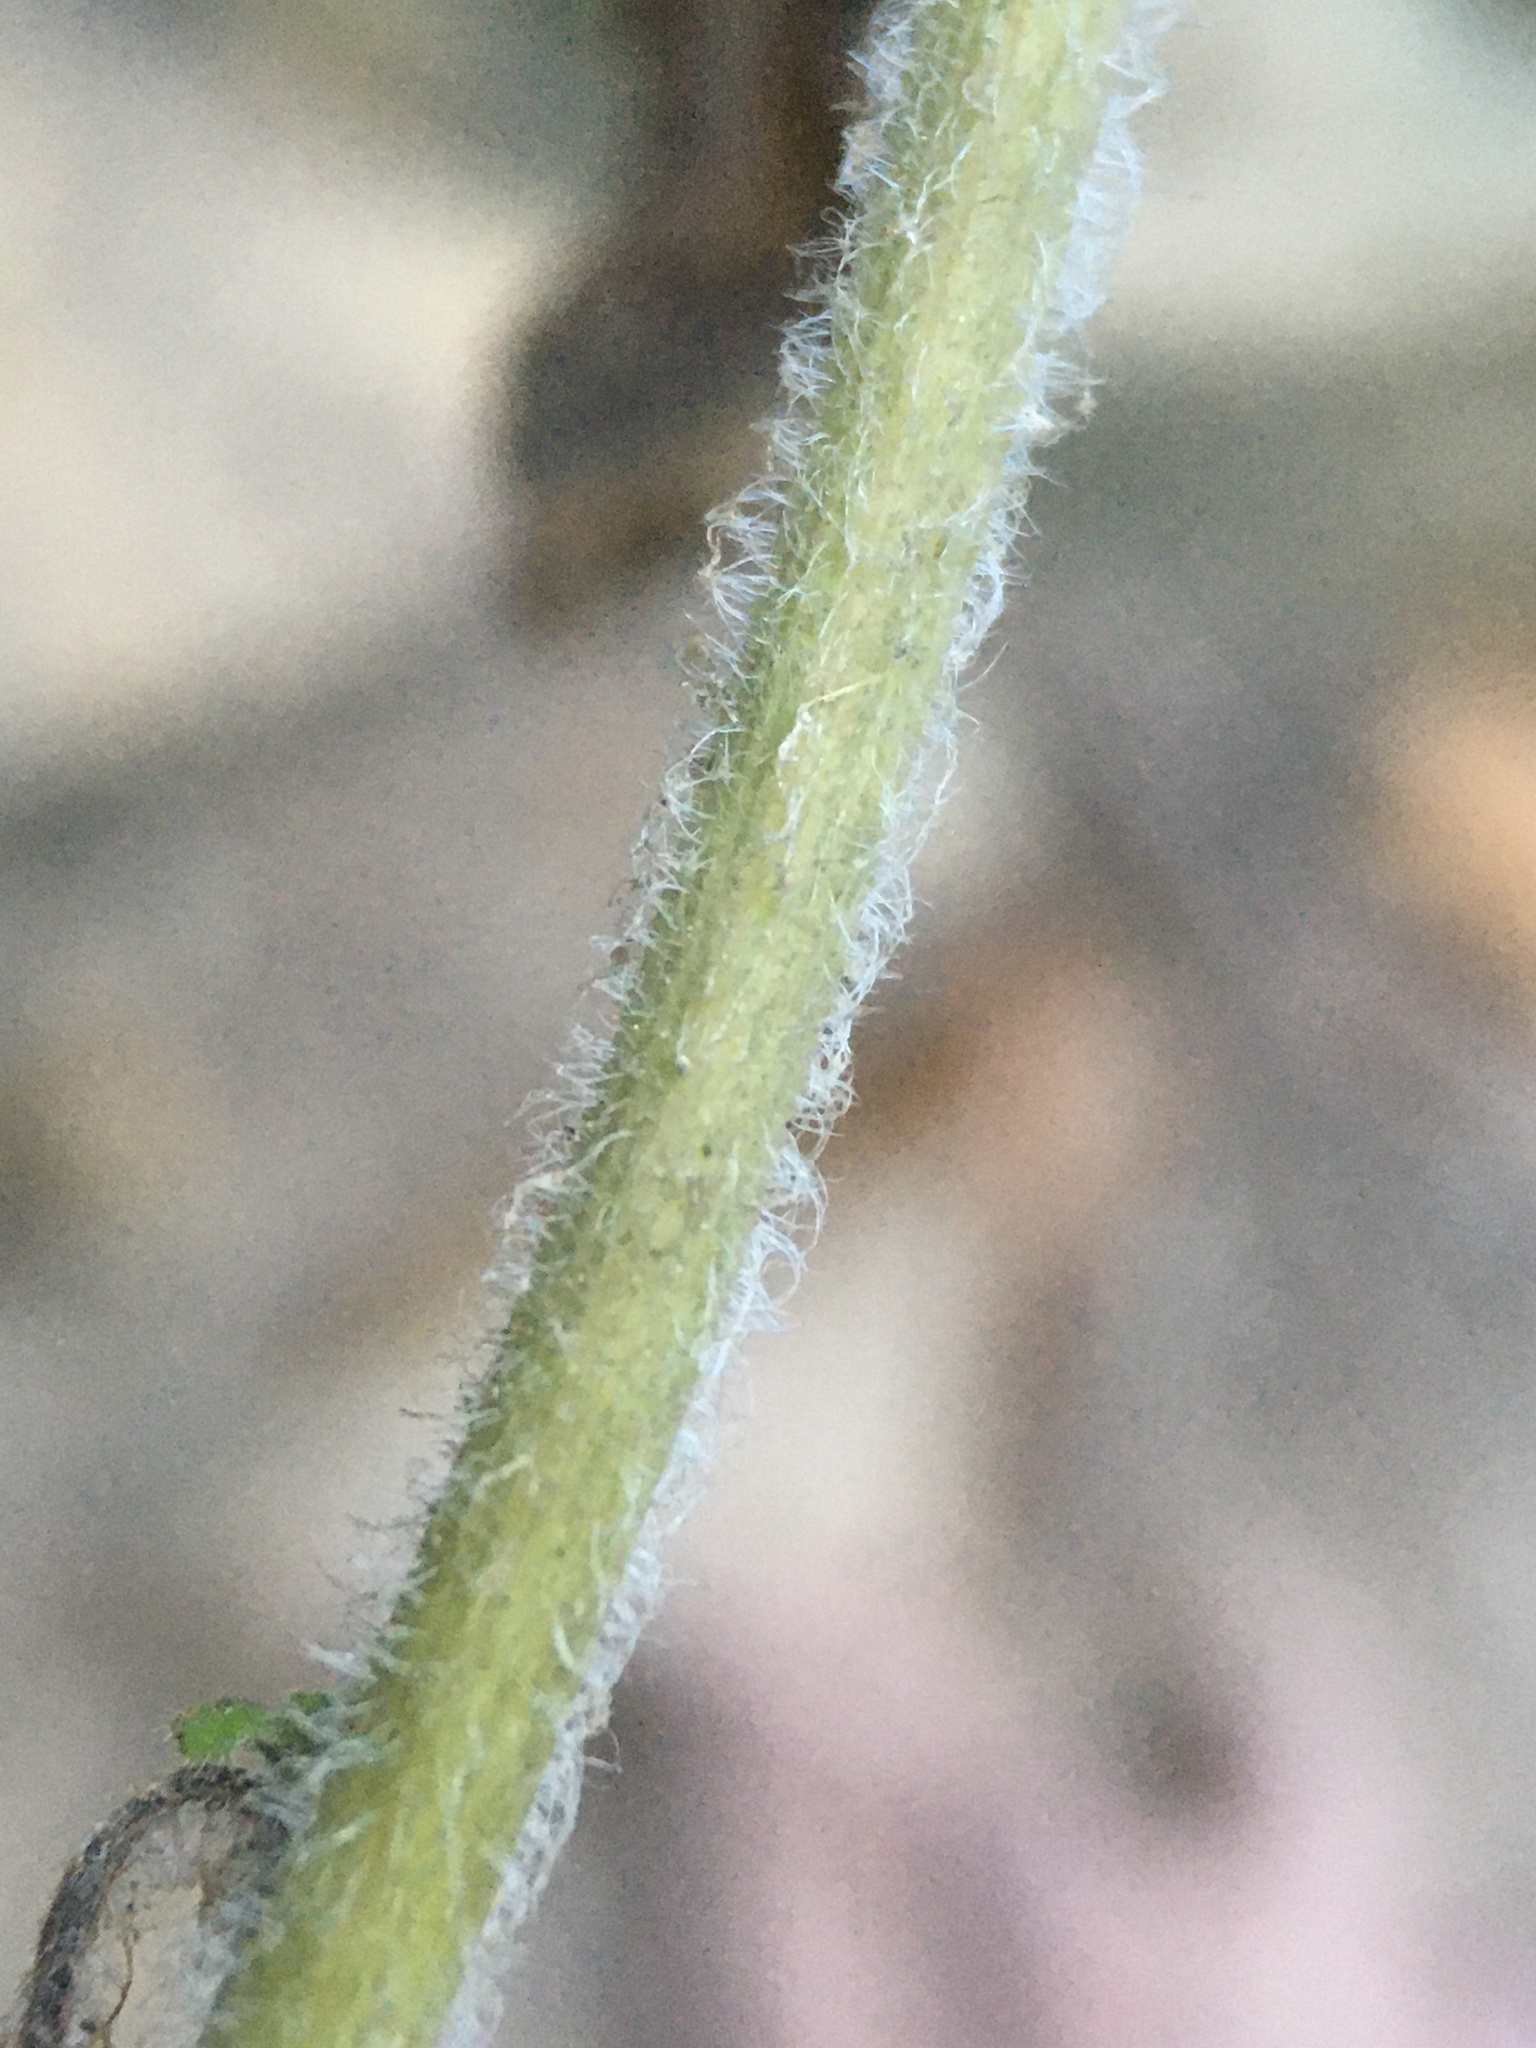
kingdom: Plantae
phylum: Tracheophyta
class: Magnoliopsida
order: Asterales
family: Asteraceae
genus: Solidago
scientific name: Solidago albopilosa
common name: White-hair goldenrod
